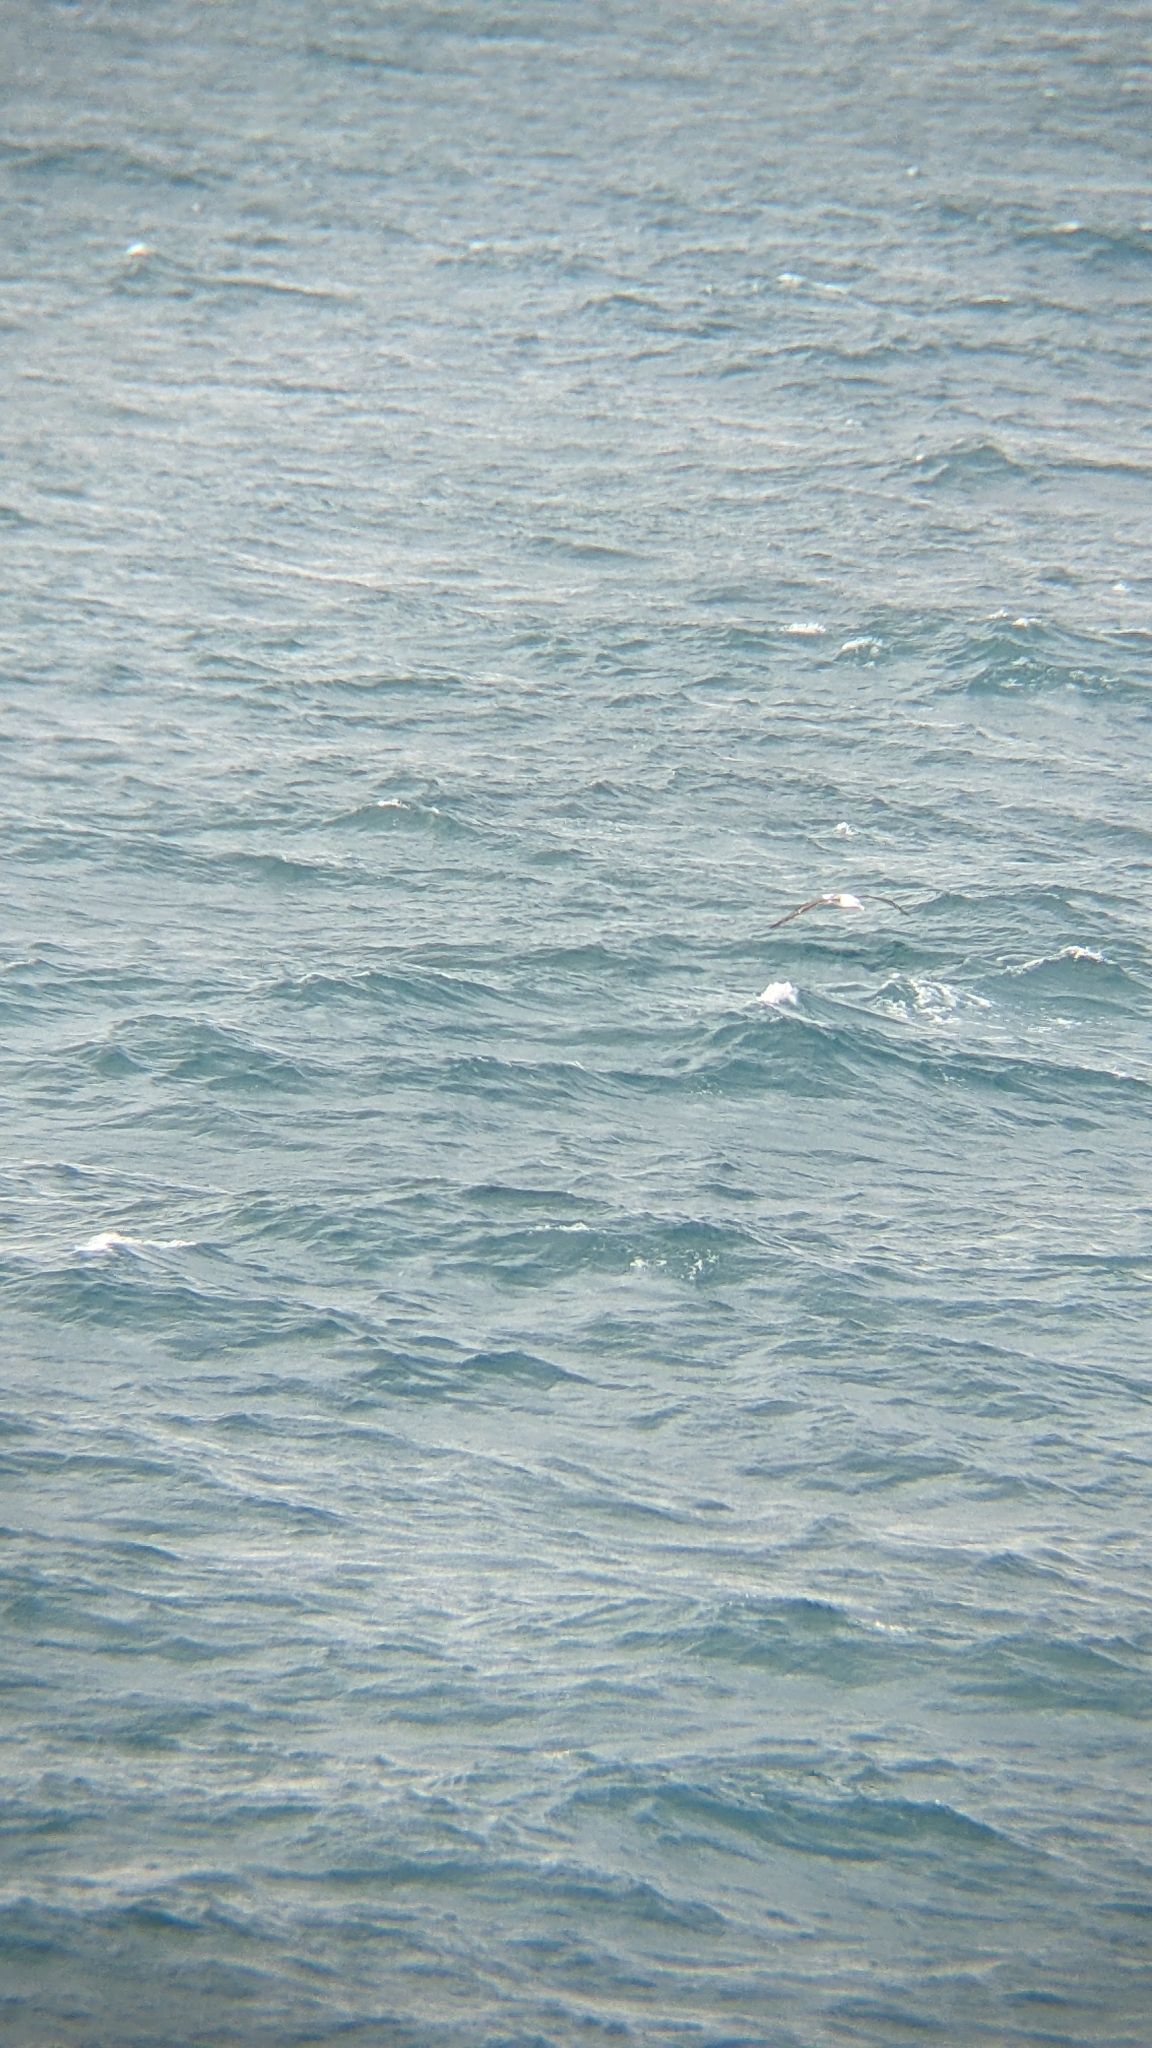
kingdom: Animalia
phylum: Chordata
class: Aves
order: Procellariiformes
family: Diomedeidae
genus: Thalassarche
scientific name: Thalassarche cauta
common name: Shy albatross
